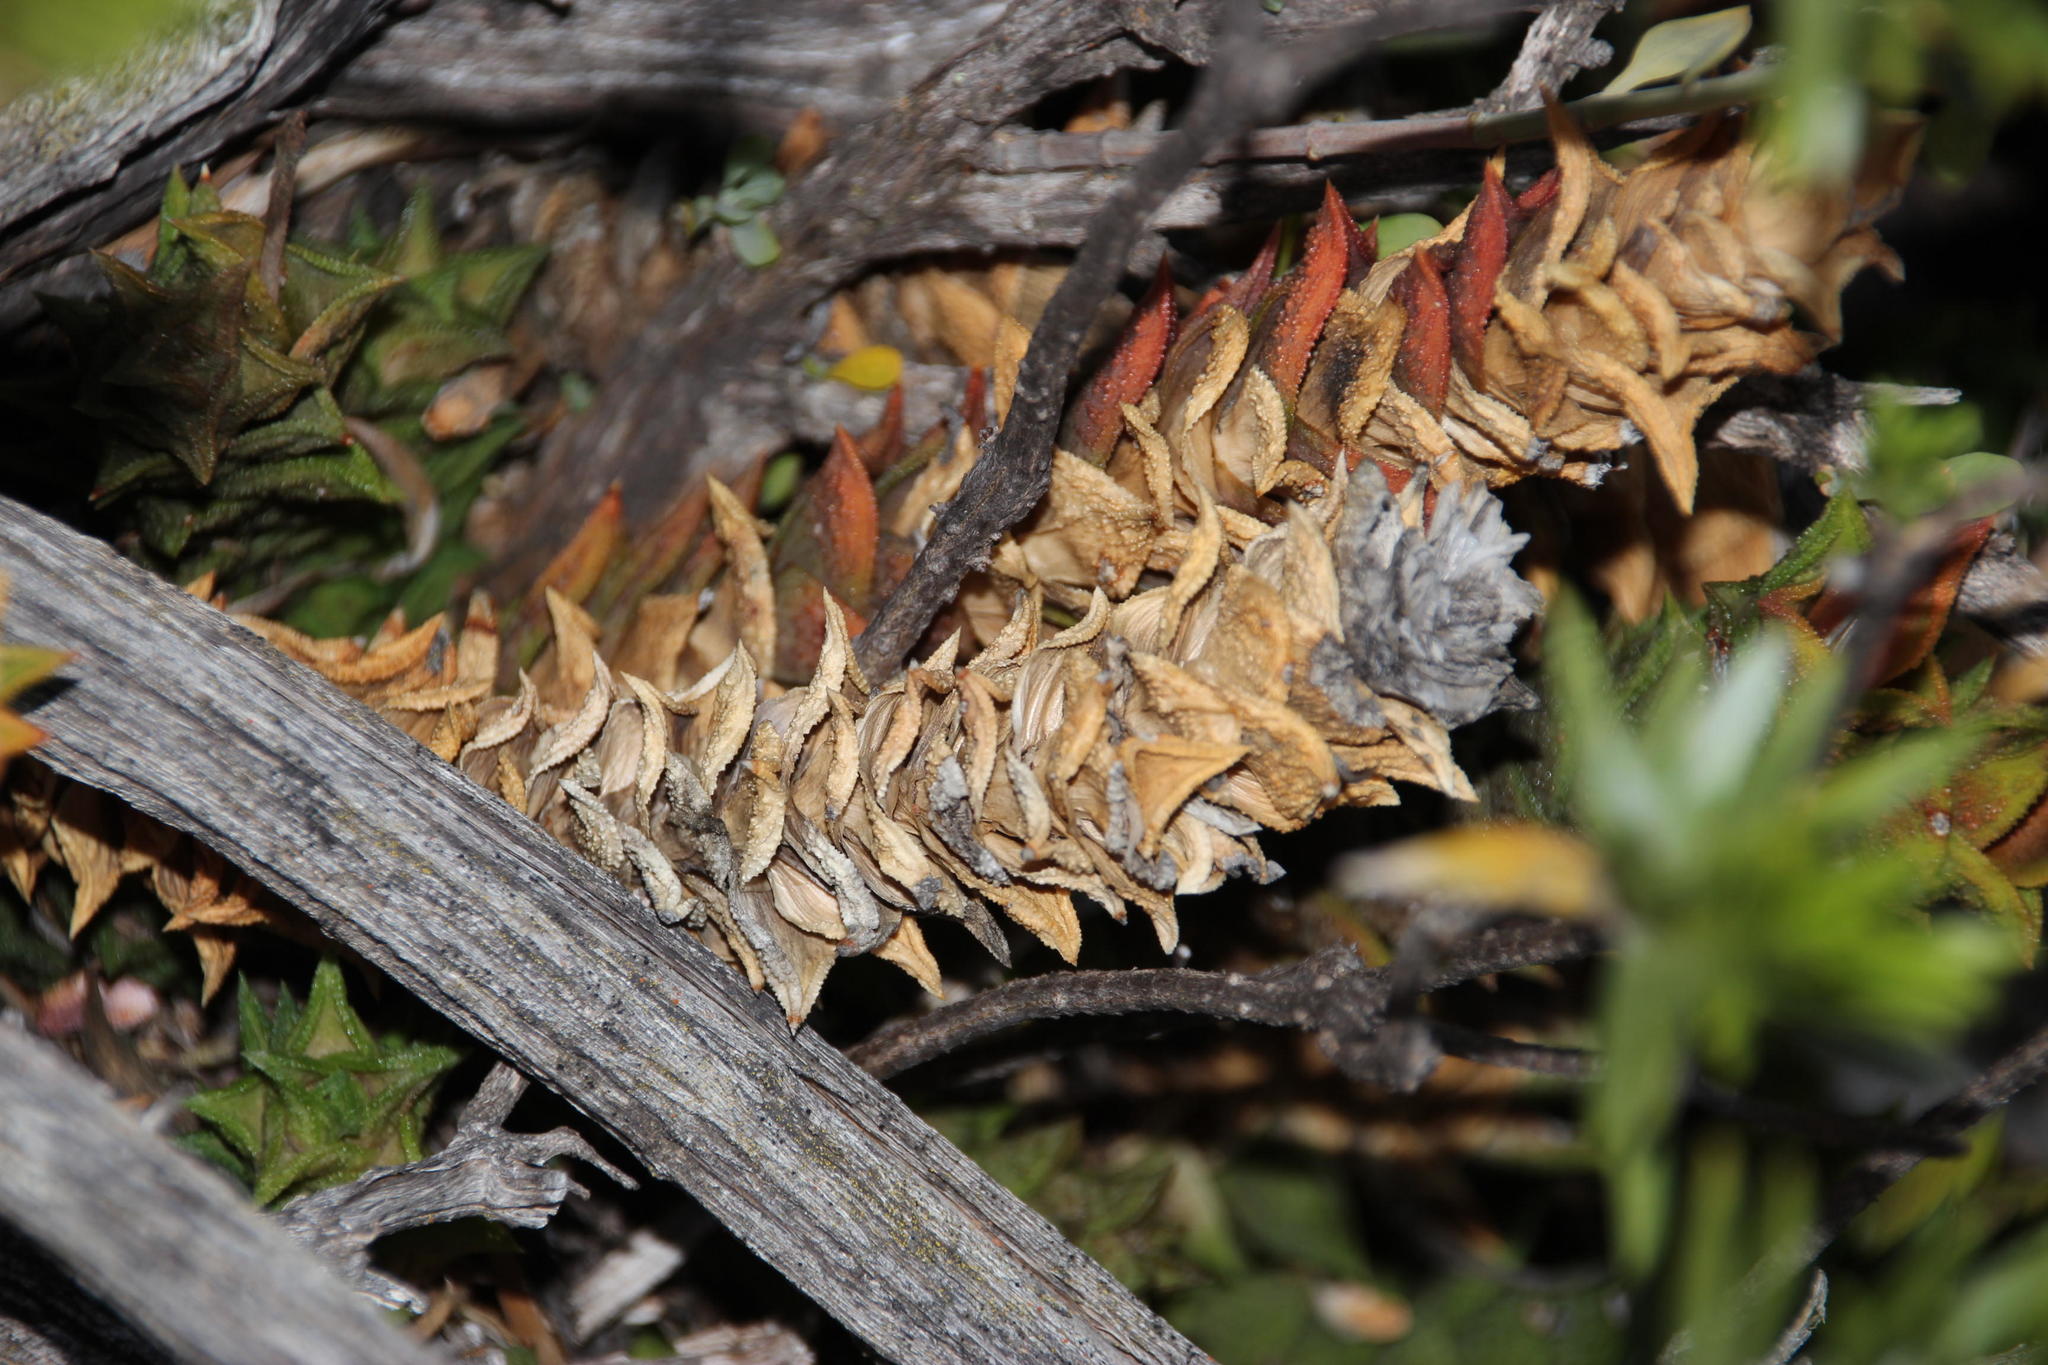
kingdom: Plantae
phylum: Tracheophyta
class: Liliopsida
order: Asparagales
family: Asphodelaceae
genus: Astroloba
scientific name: Astroloba corrugata
